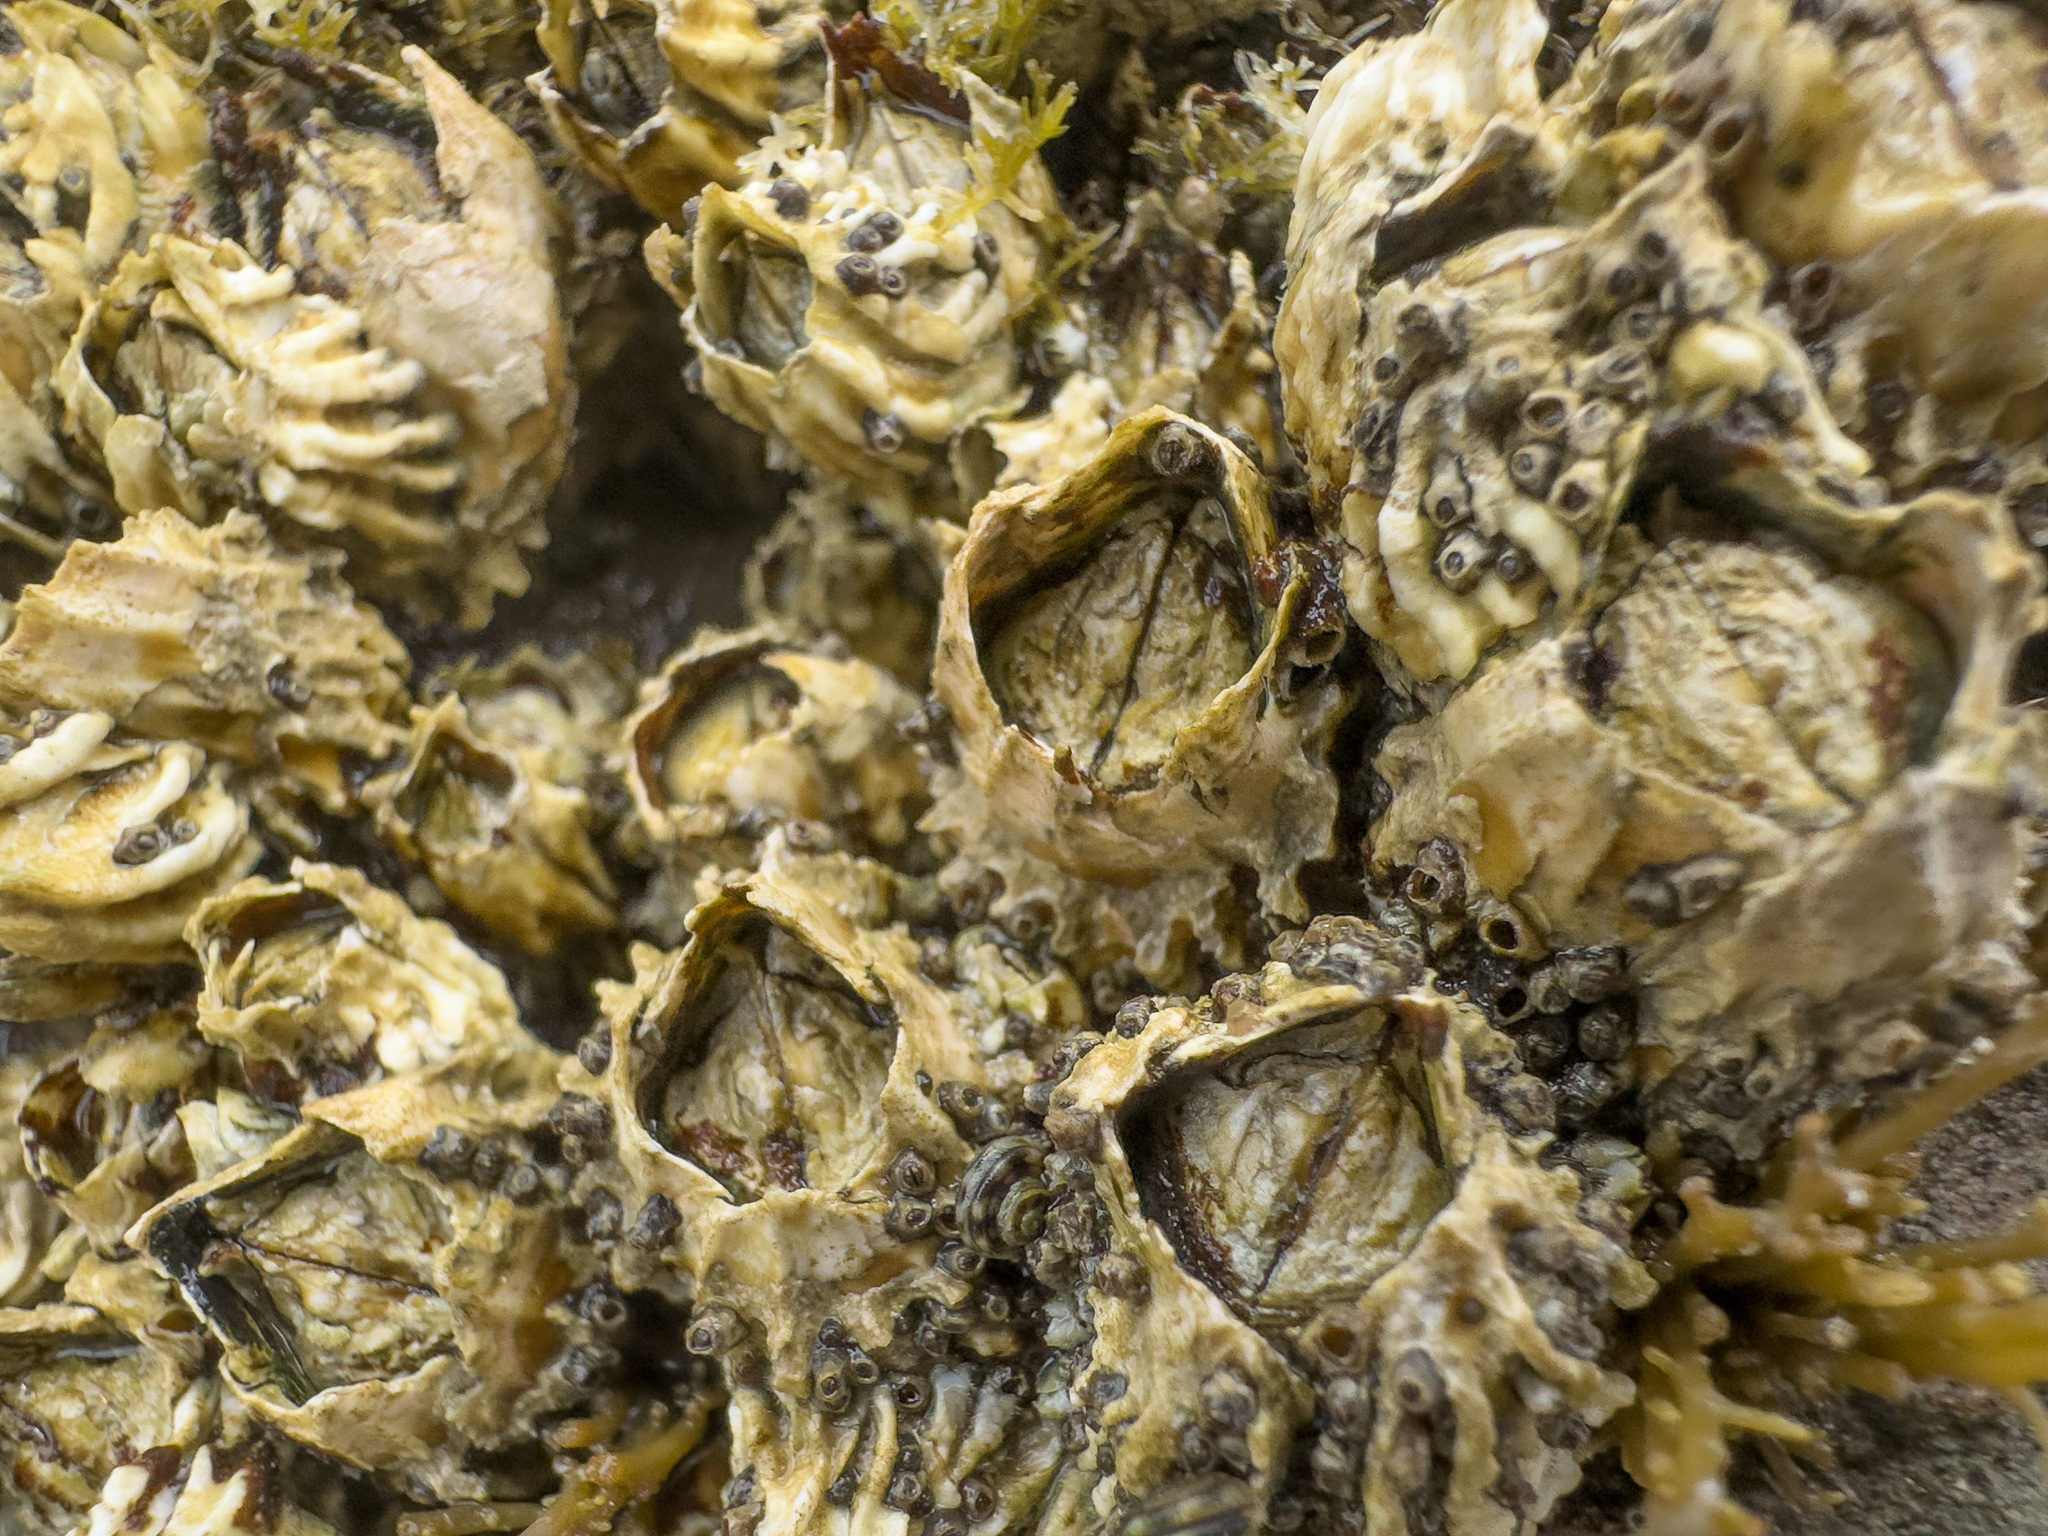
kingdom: Animalia
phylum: Arthropoda
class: Maxillopoda
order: Sessilia
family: Tetraclitidae
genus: Epopella
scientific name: Epopella plicata
